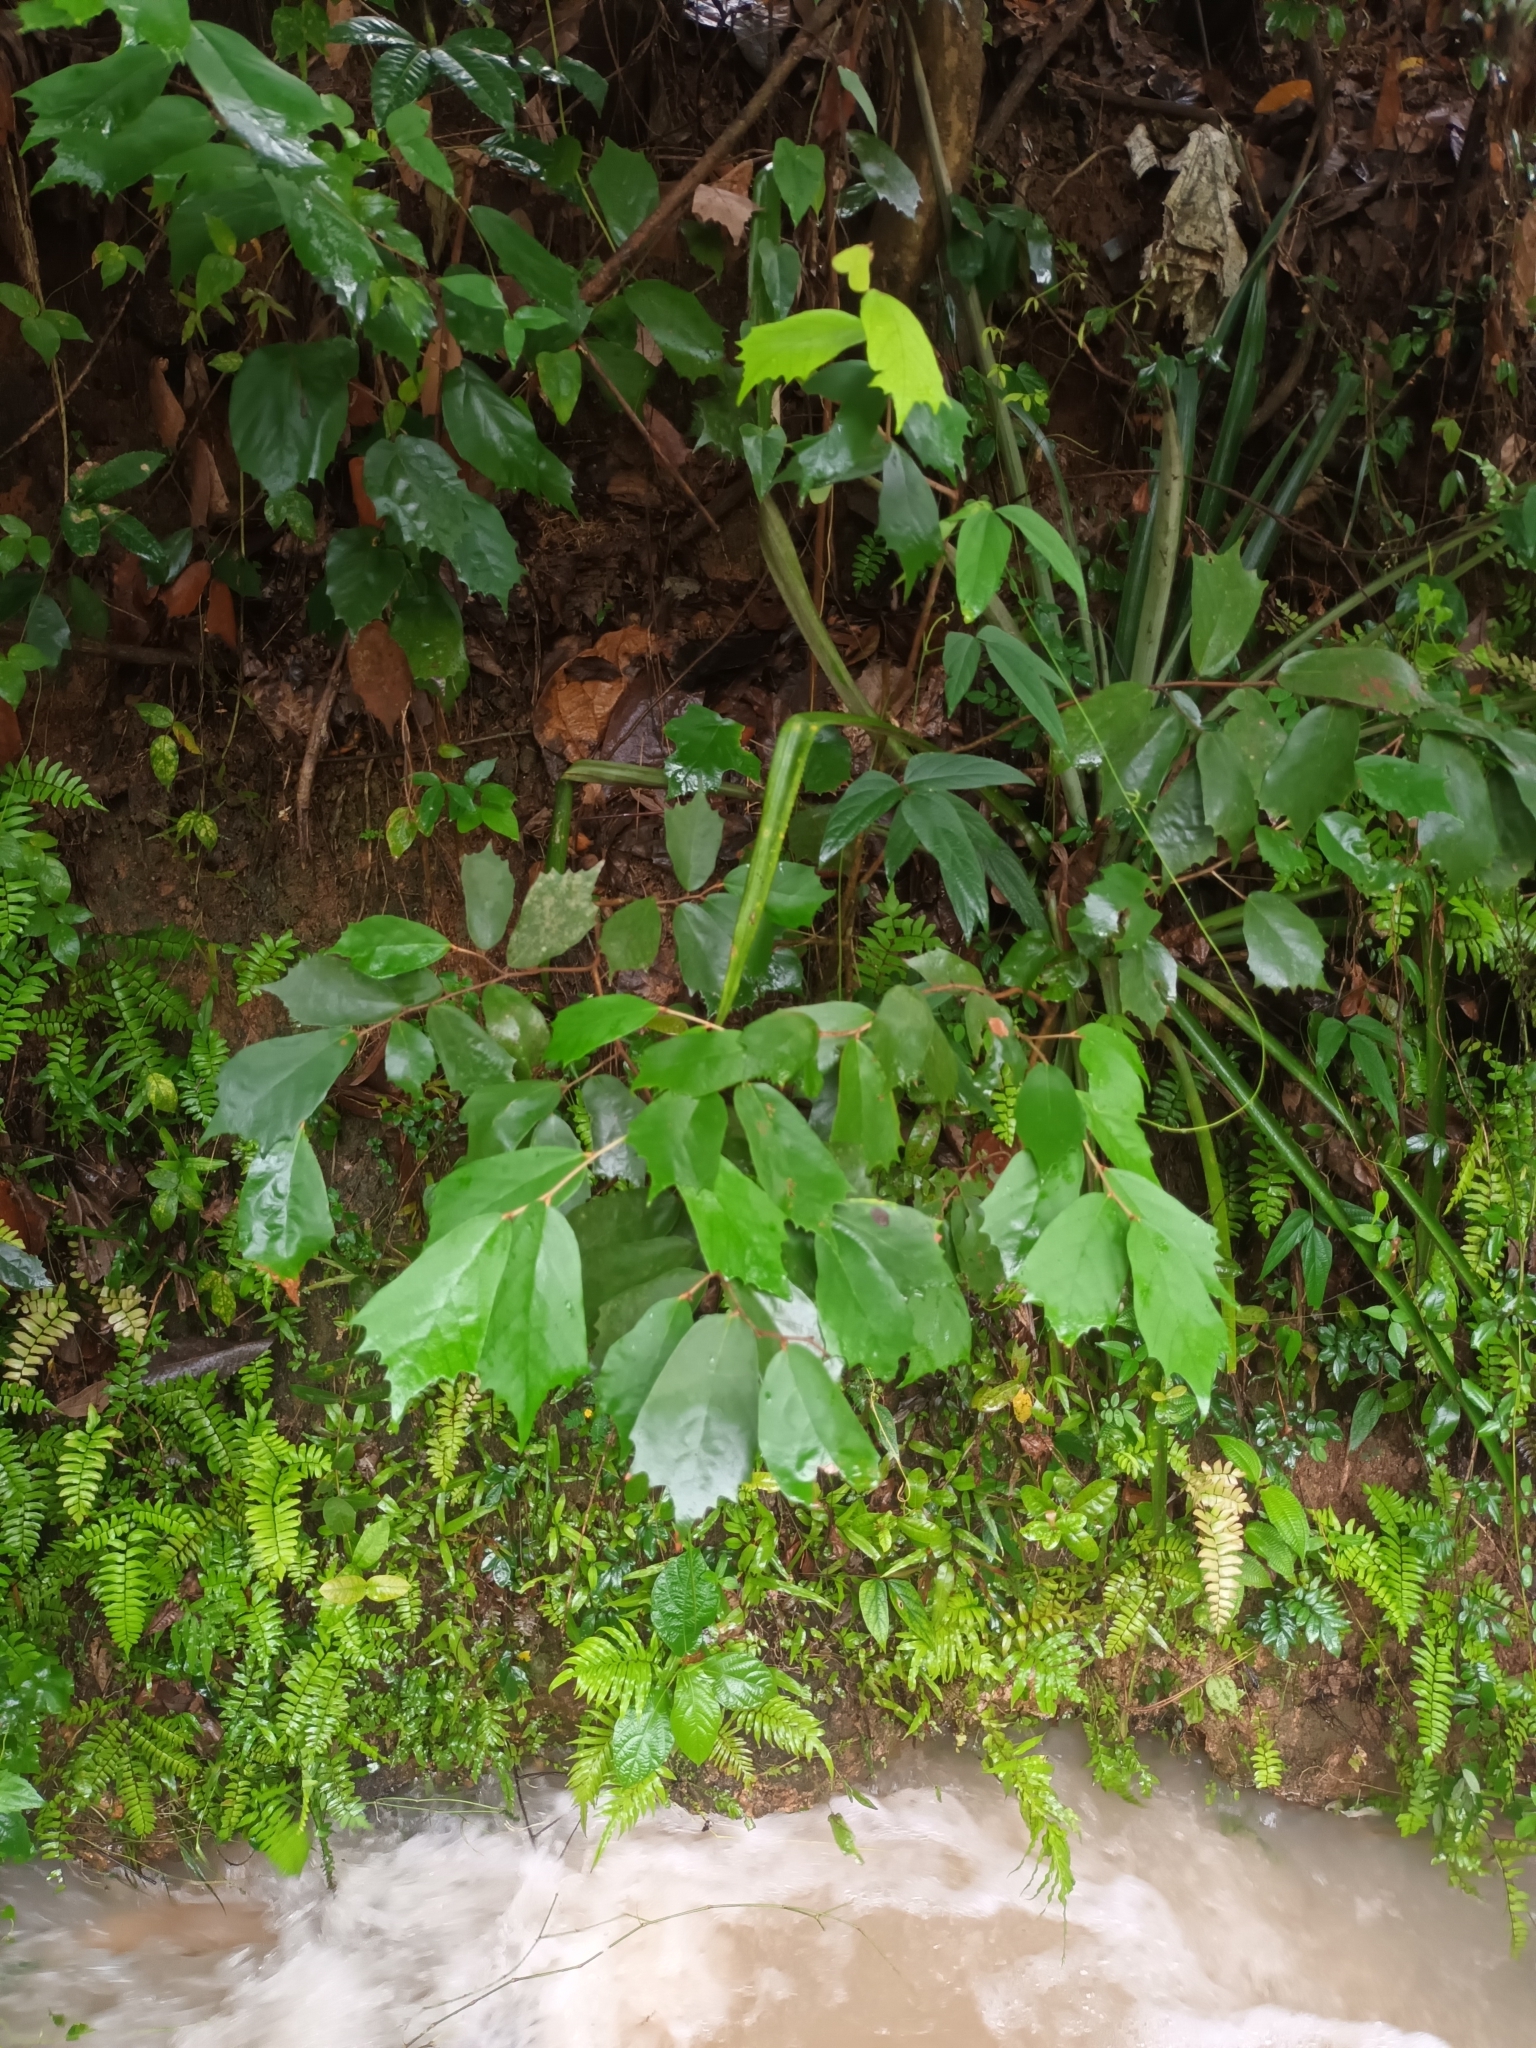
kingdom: Plantae
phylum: Tracheophyta
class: Magnoliopsida
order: Malvales
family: Malvaceae
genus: Pterospermum
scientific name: Pterospermum reticulatum
